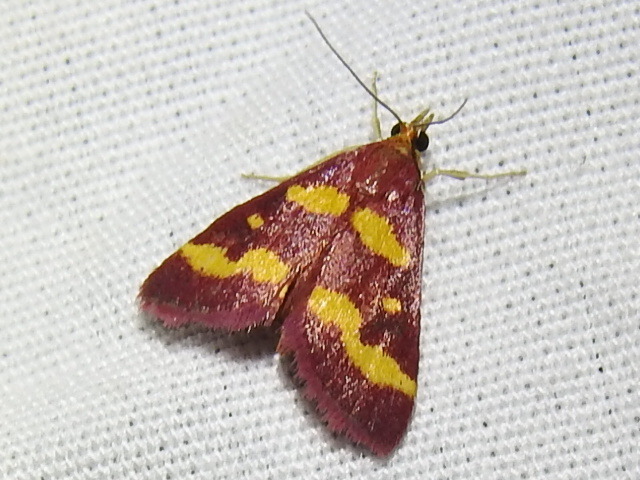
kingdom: Animalia
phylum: Arthropoda
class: Insecta
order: Lepidoptera
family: Crambidae
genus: Pyrausta
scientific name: Pyrausta tyralis
